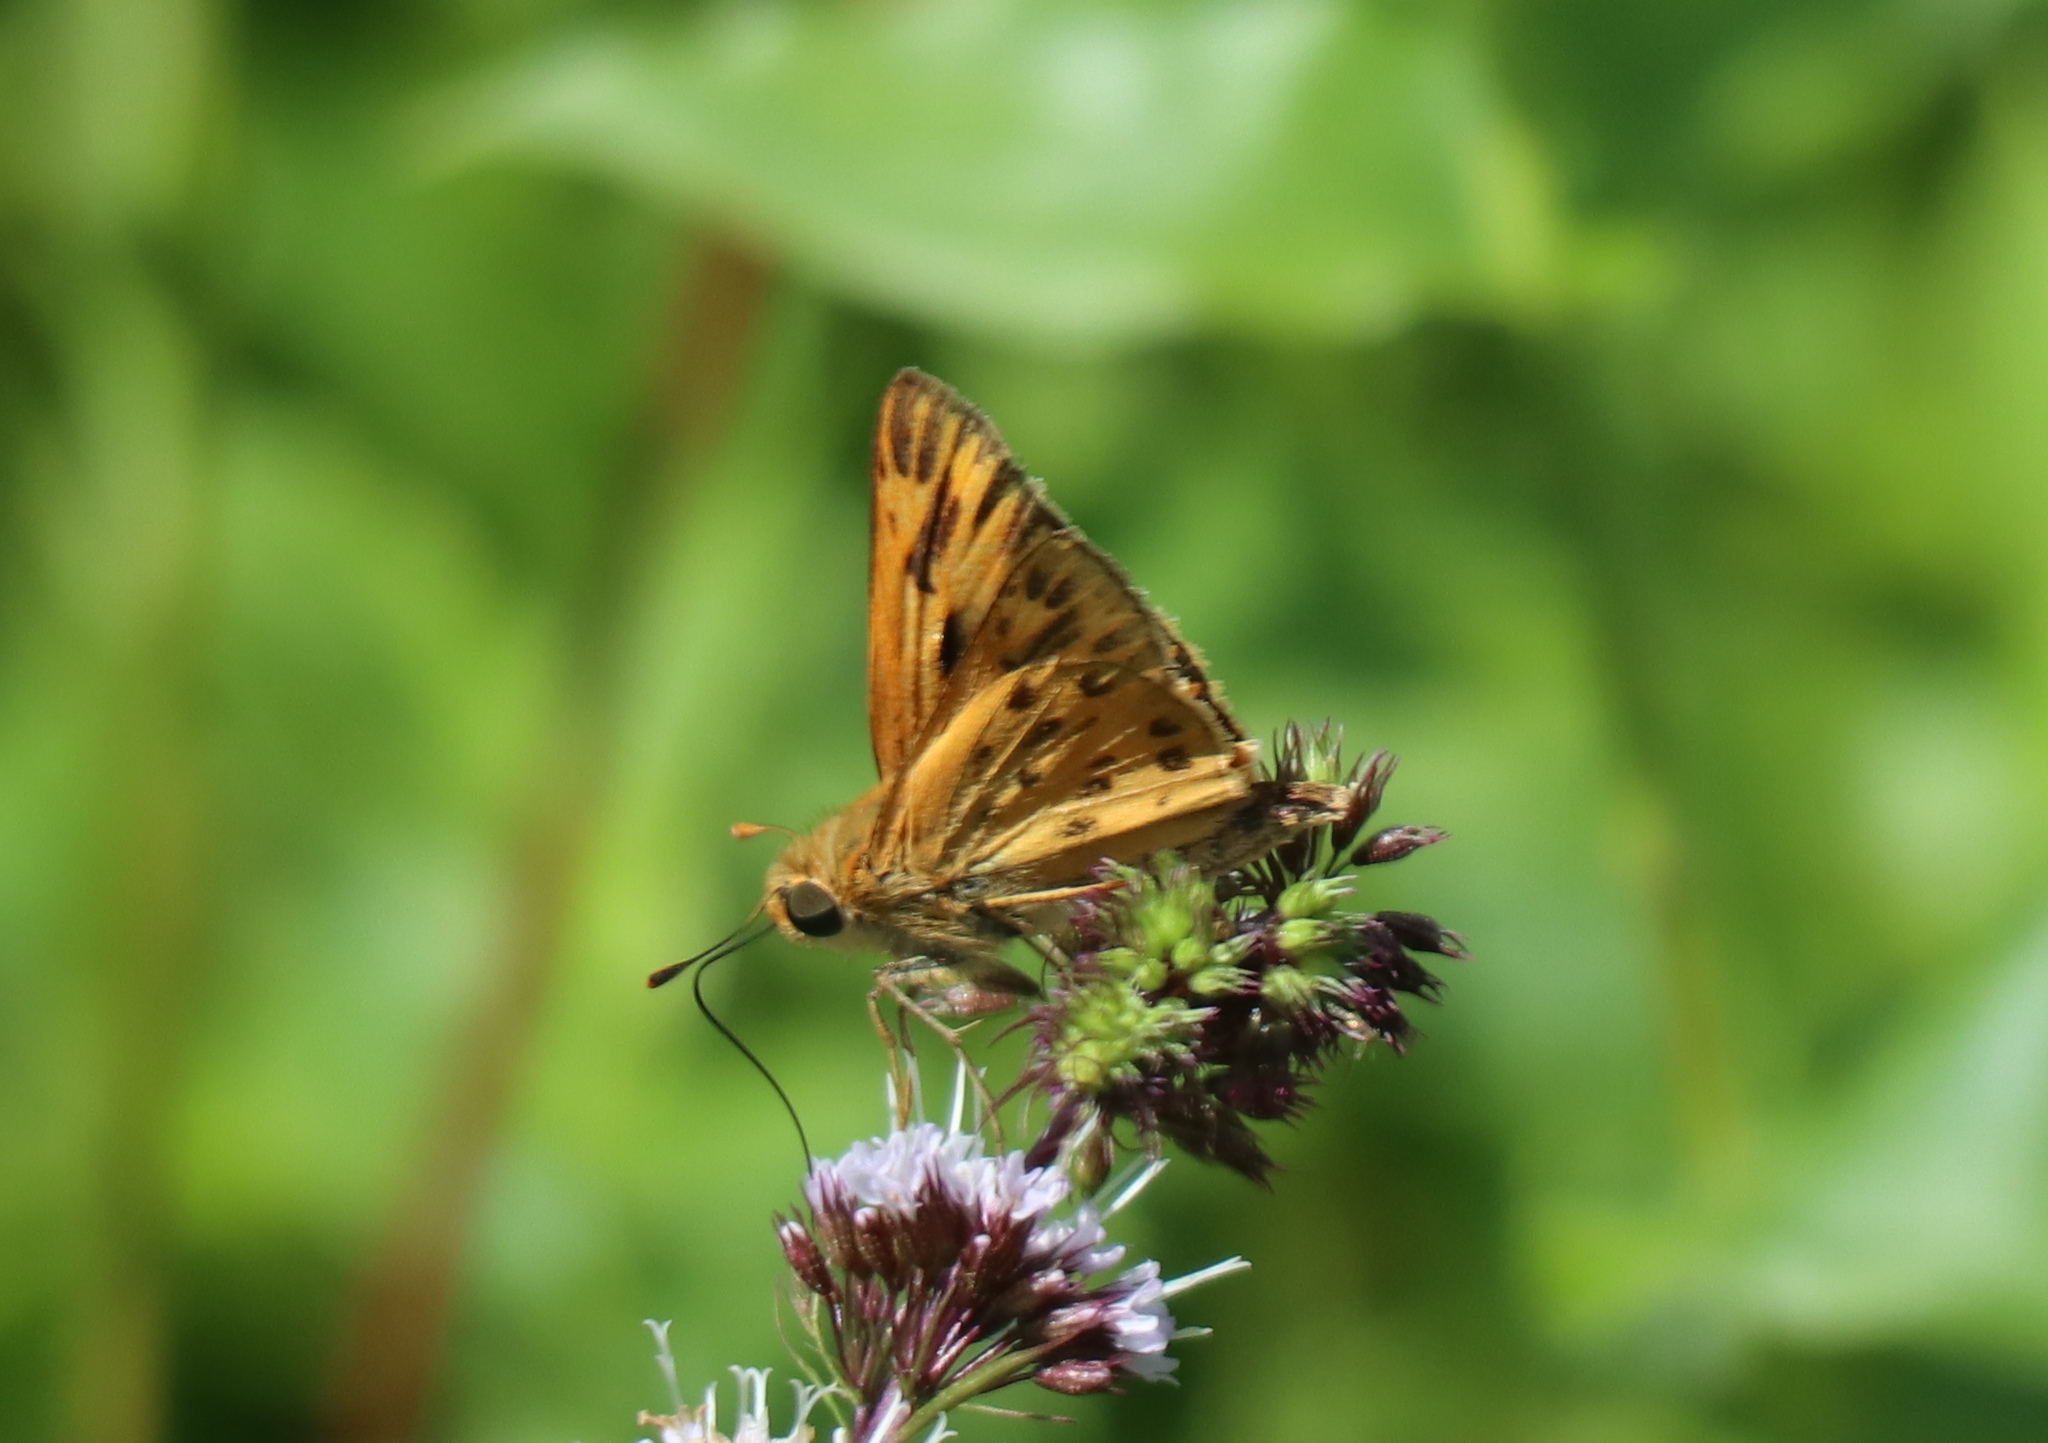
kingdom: Animalia
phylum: Arthropoda
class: Insecta
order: Lepidoptera
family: Hesperiidae
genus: Hylephila
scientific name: Hylephila phyleus
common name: Fiery skipper
